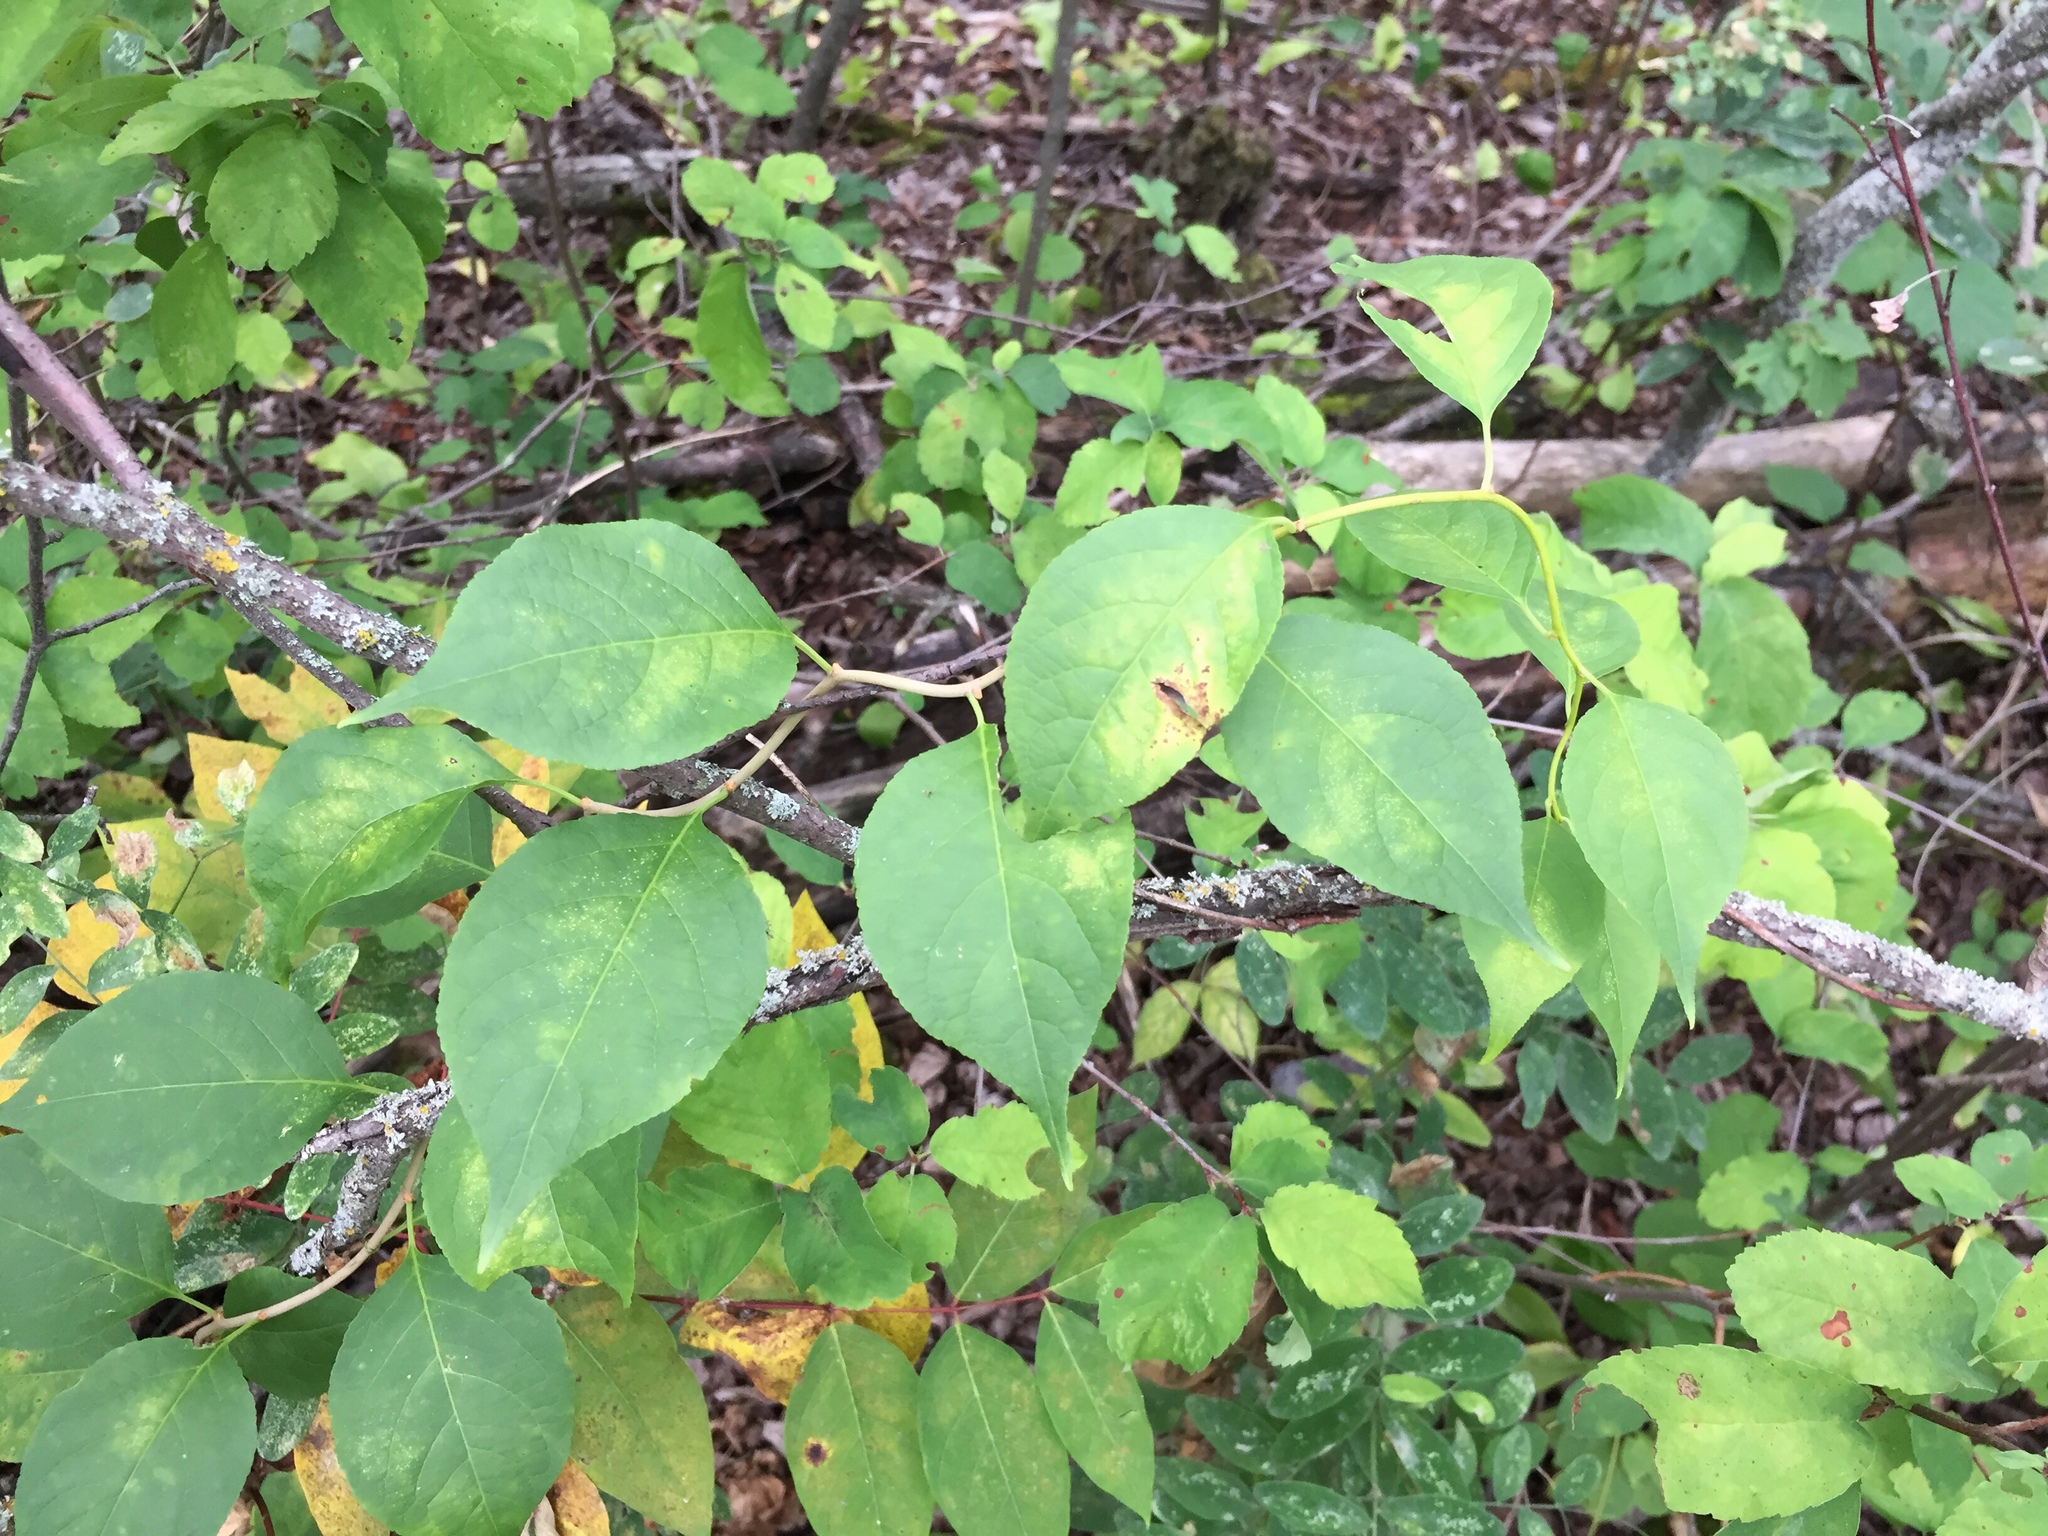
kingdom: Plantae
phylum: Tracheophyta
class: Magnoliopsida
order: Celastrales
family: Celastraceae
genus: Celastrus
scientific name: Celastrus scandens
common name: American bittersweet
